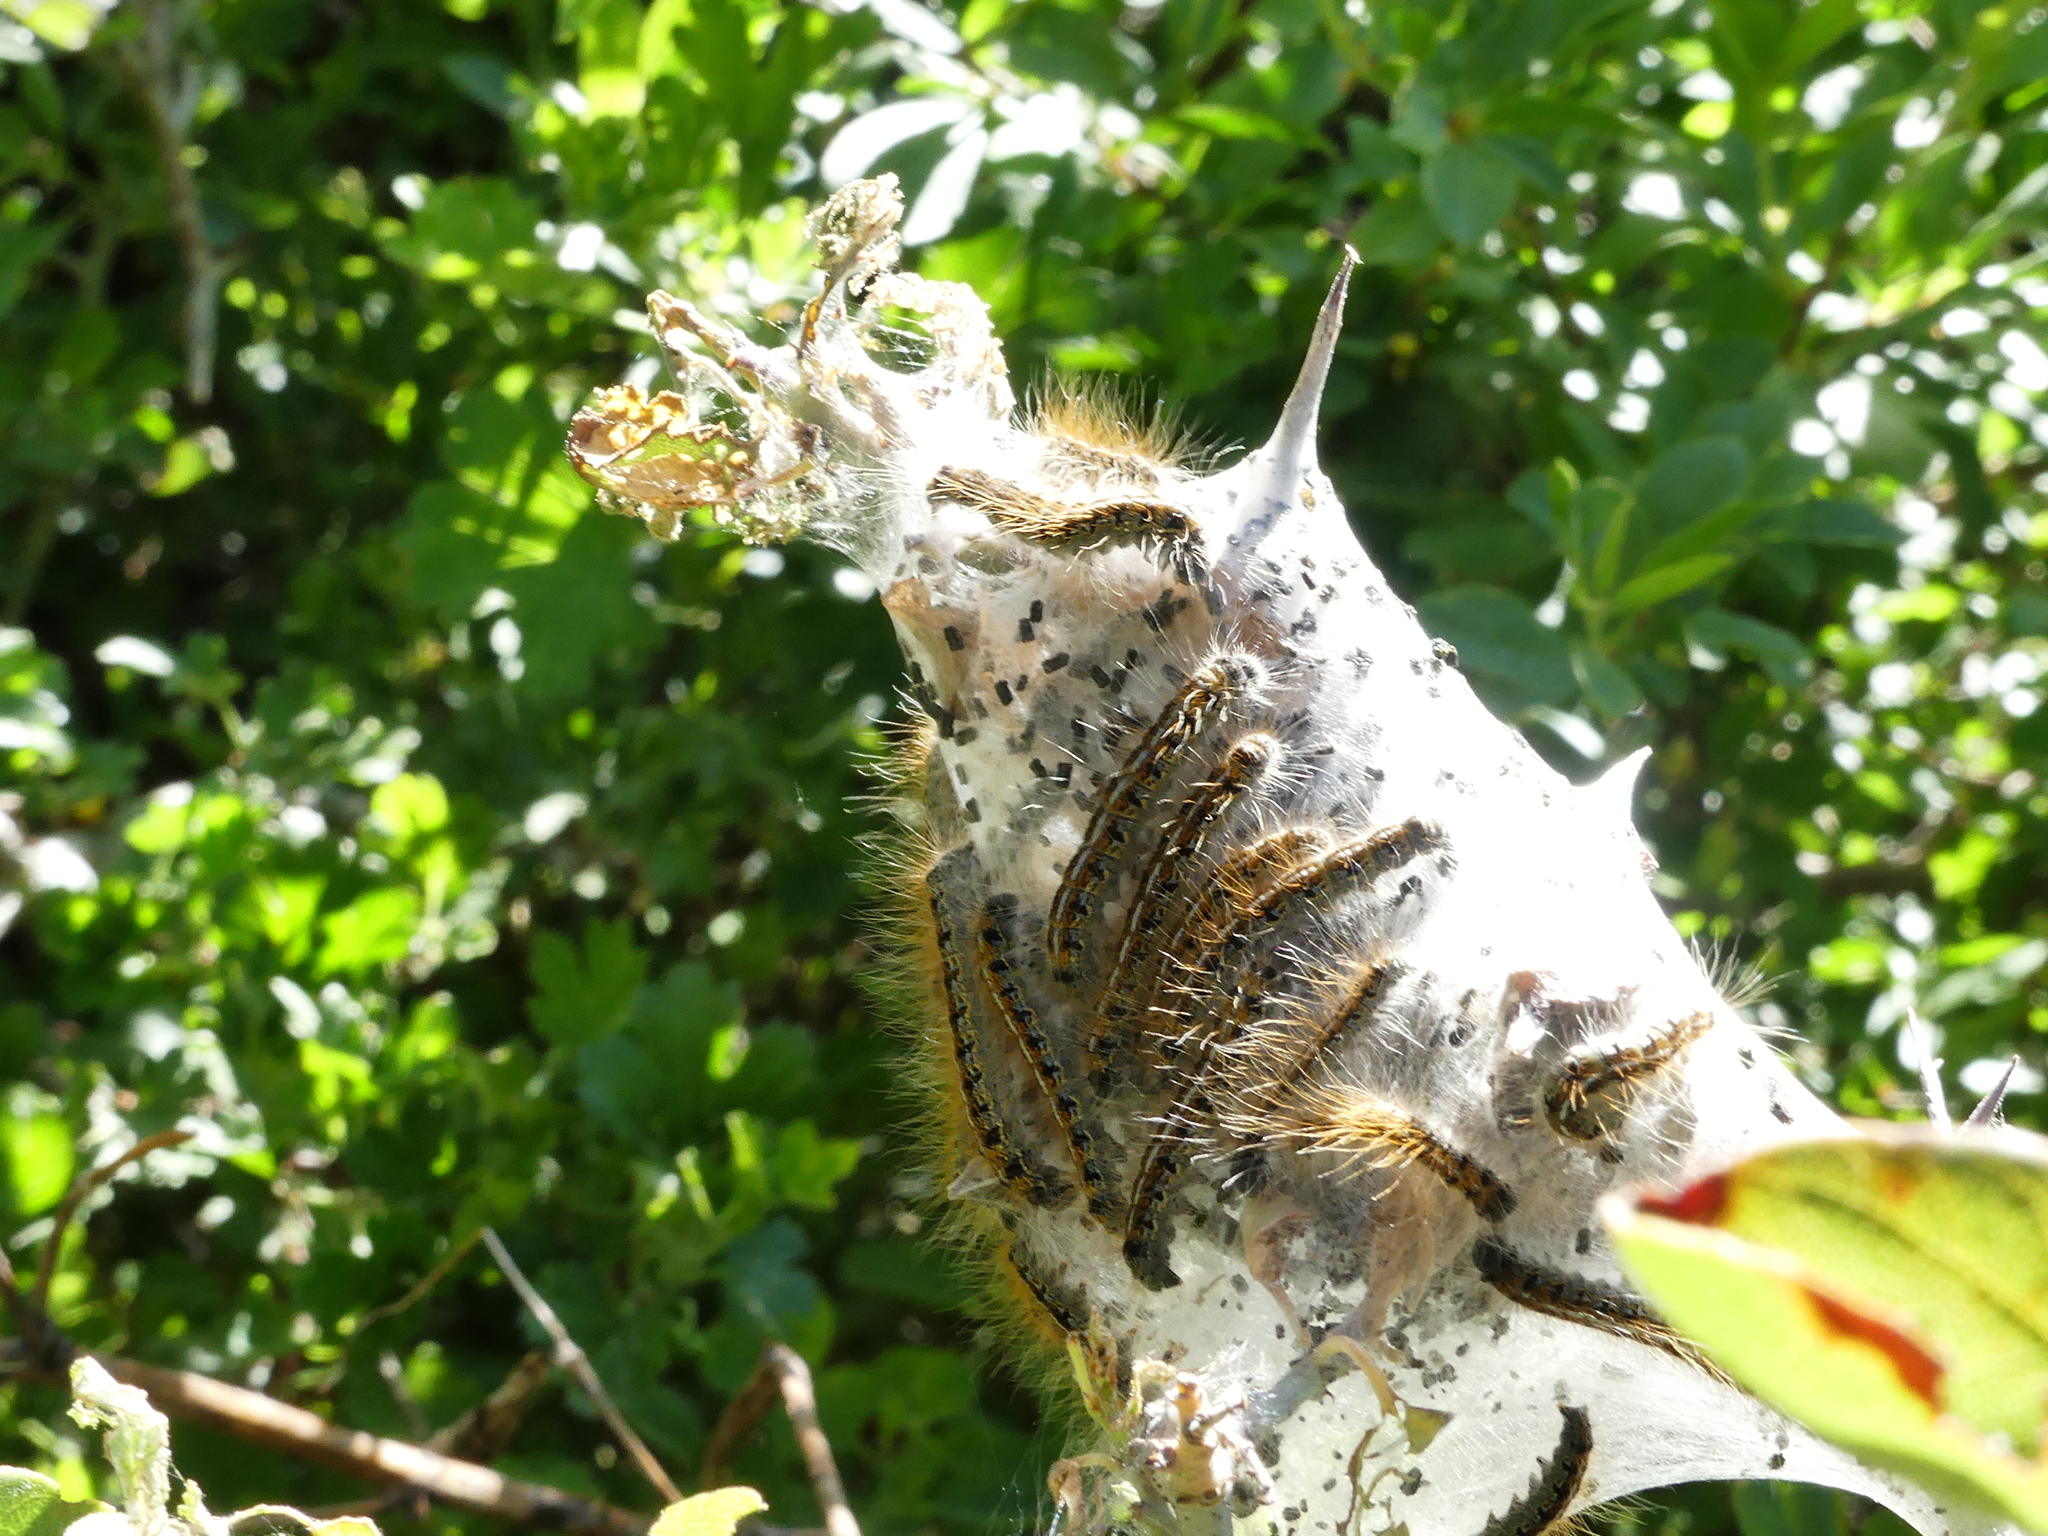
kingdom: Animalia
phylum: Arthropoda
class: Insecta
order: Lepidoptera
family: Lasiocampidae
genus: Malacosoma
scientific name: Malacosoma californica
